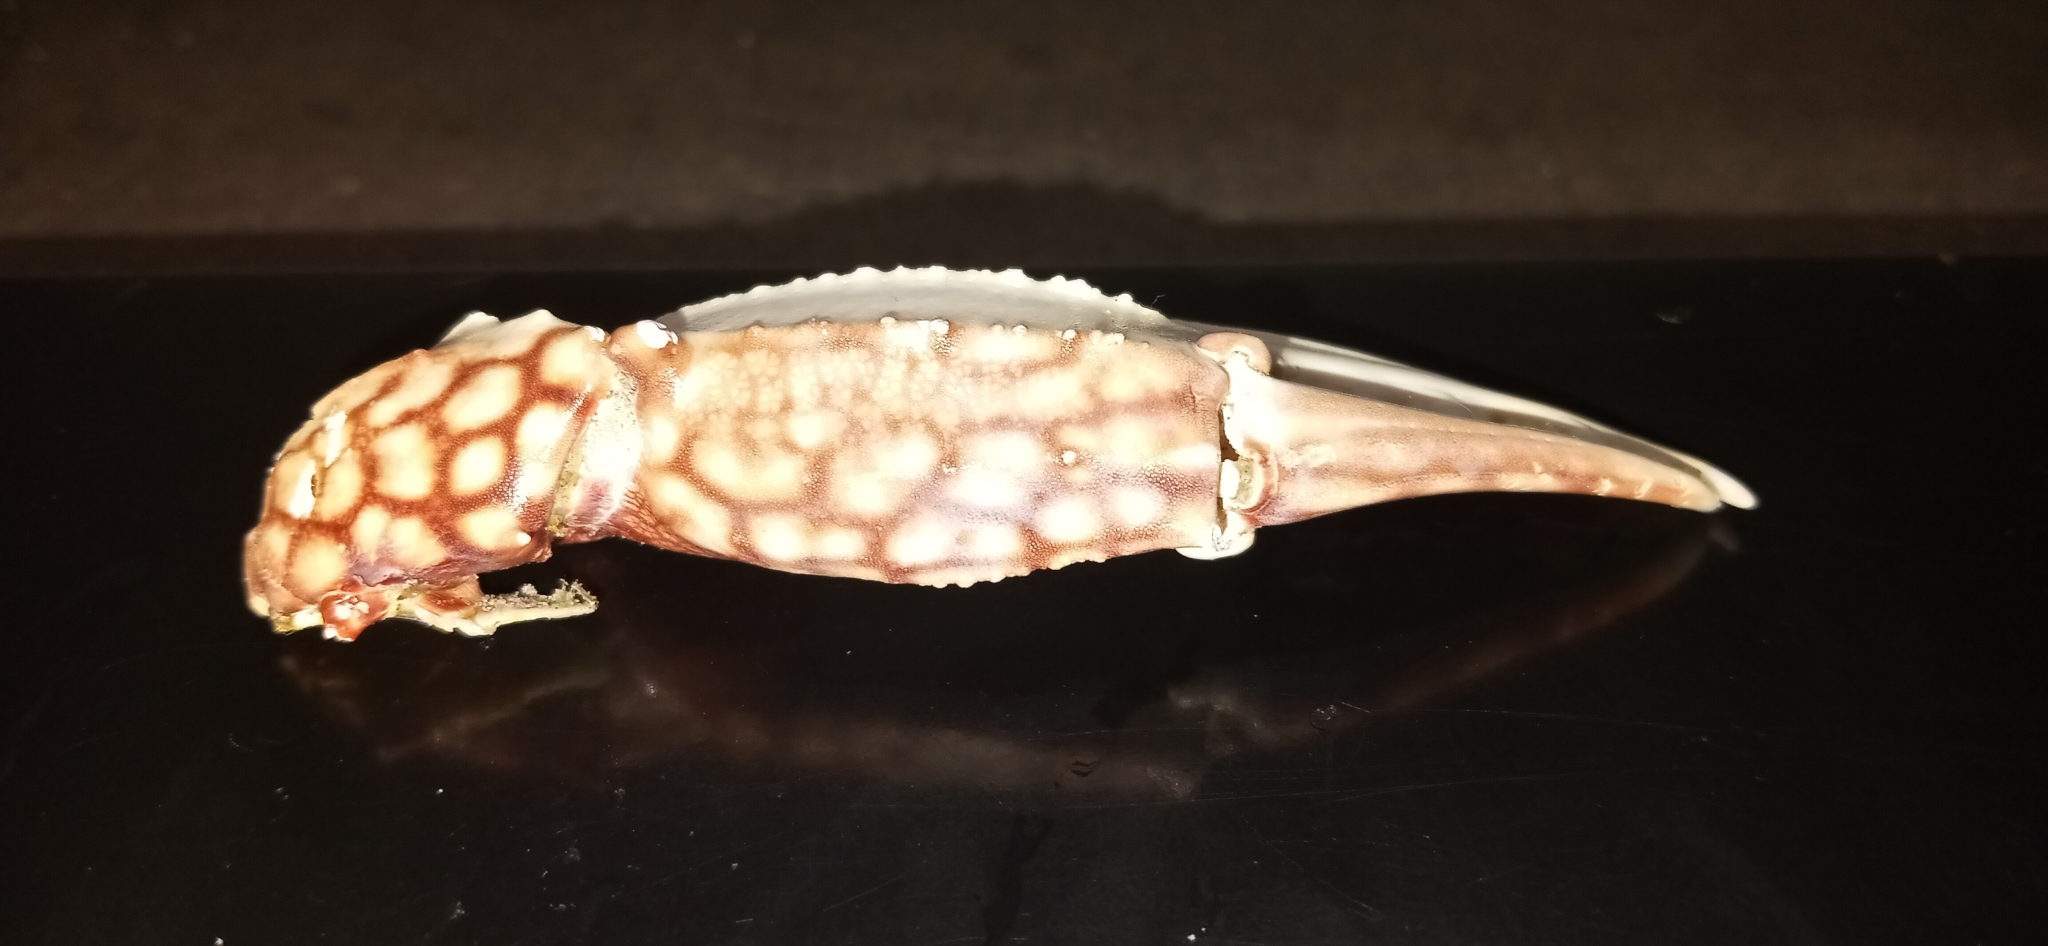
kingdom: Animalia
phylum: Arthropoda
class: Malacostraca
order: Decapoda
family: Portunidae
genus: Arenaeus
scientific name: Arenaeus cribrarius
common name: Speckled crab
